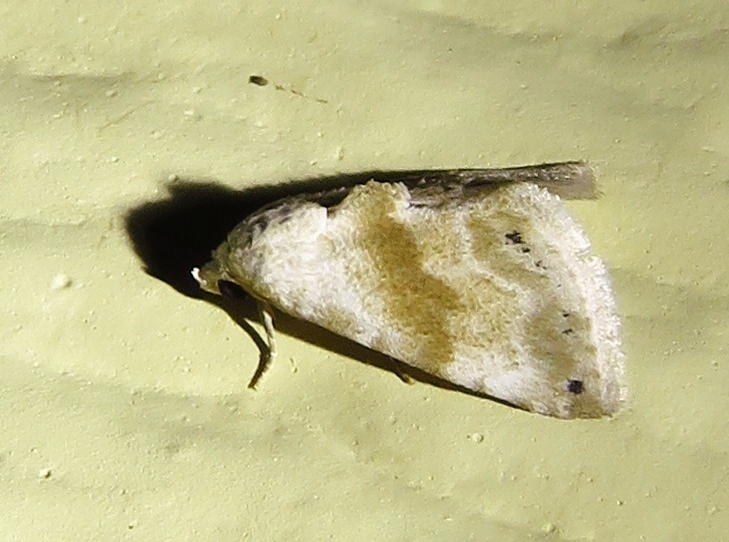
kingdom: Animalia
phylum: Arthropoda
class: Insecta
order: Lepidoptera
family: Noctuidae
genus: Eublemma
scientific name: Eublemma minima
